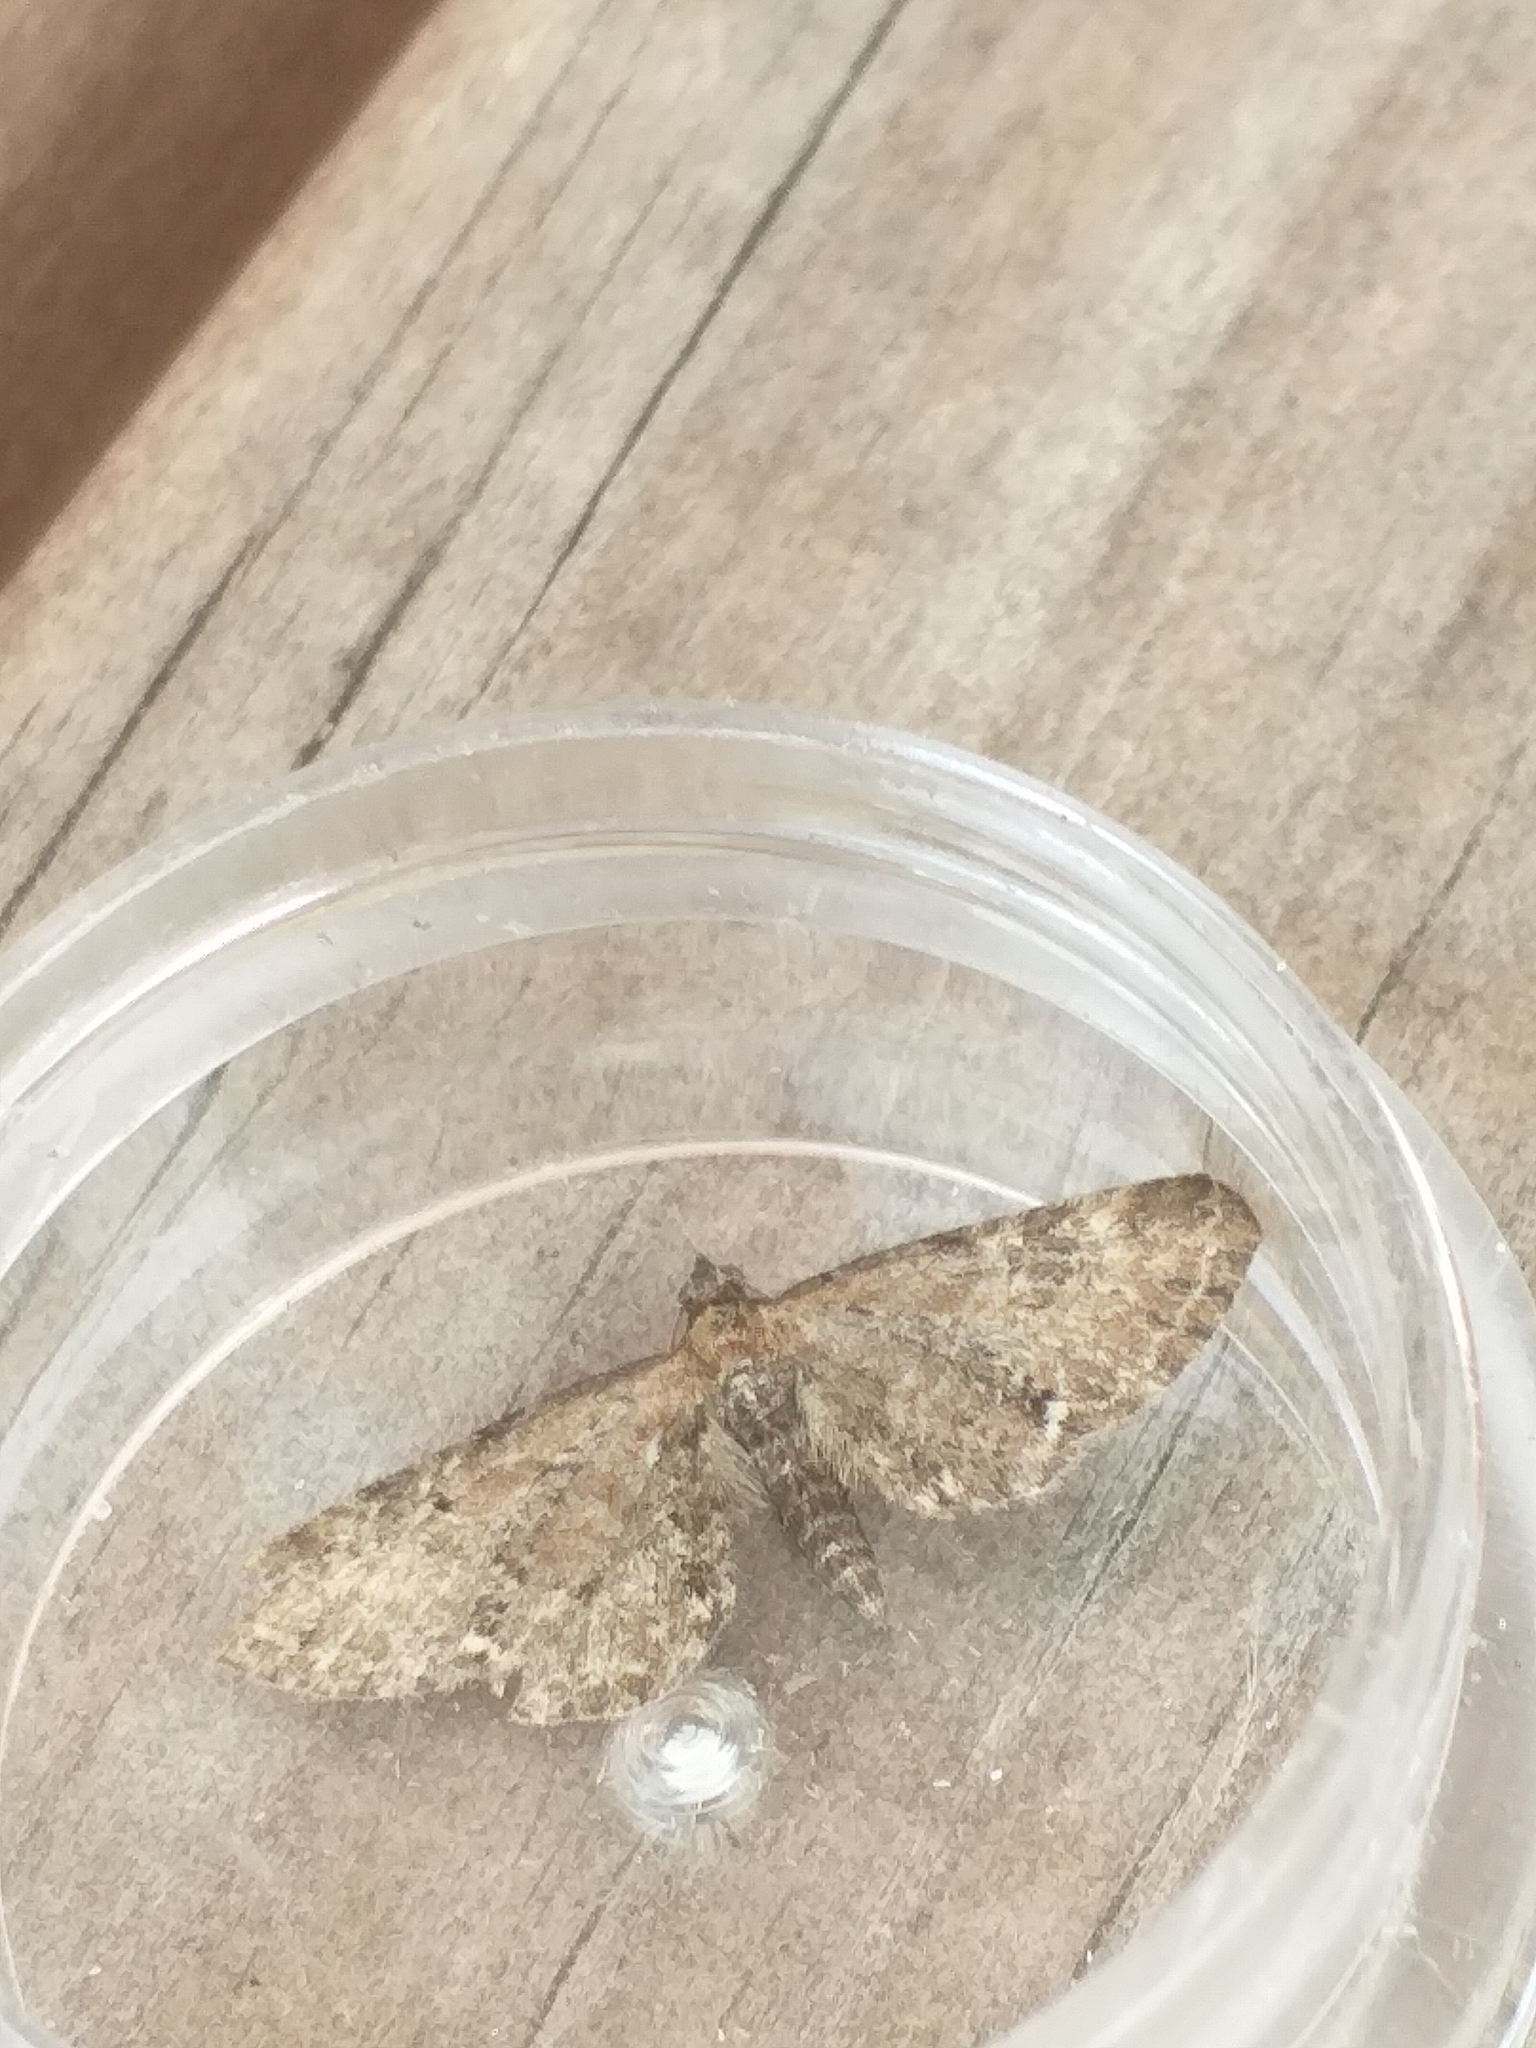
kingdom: Animalia
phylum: Arthropoda
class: Insecta
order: Lepidoptera
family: Geometridae
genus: Eupithecia
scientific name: Eupithecia vulgata
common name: Common pug
